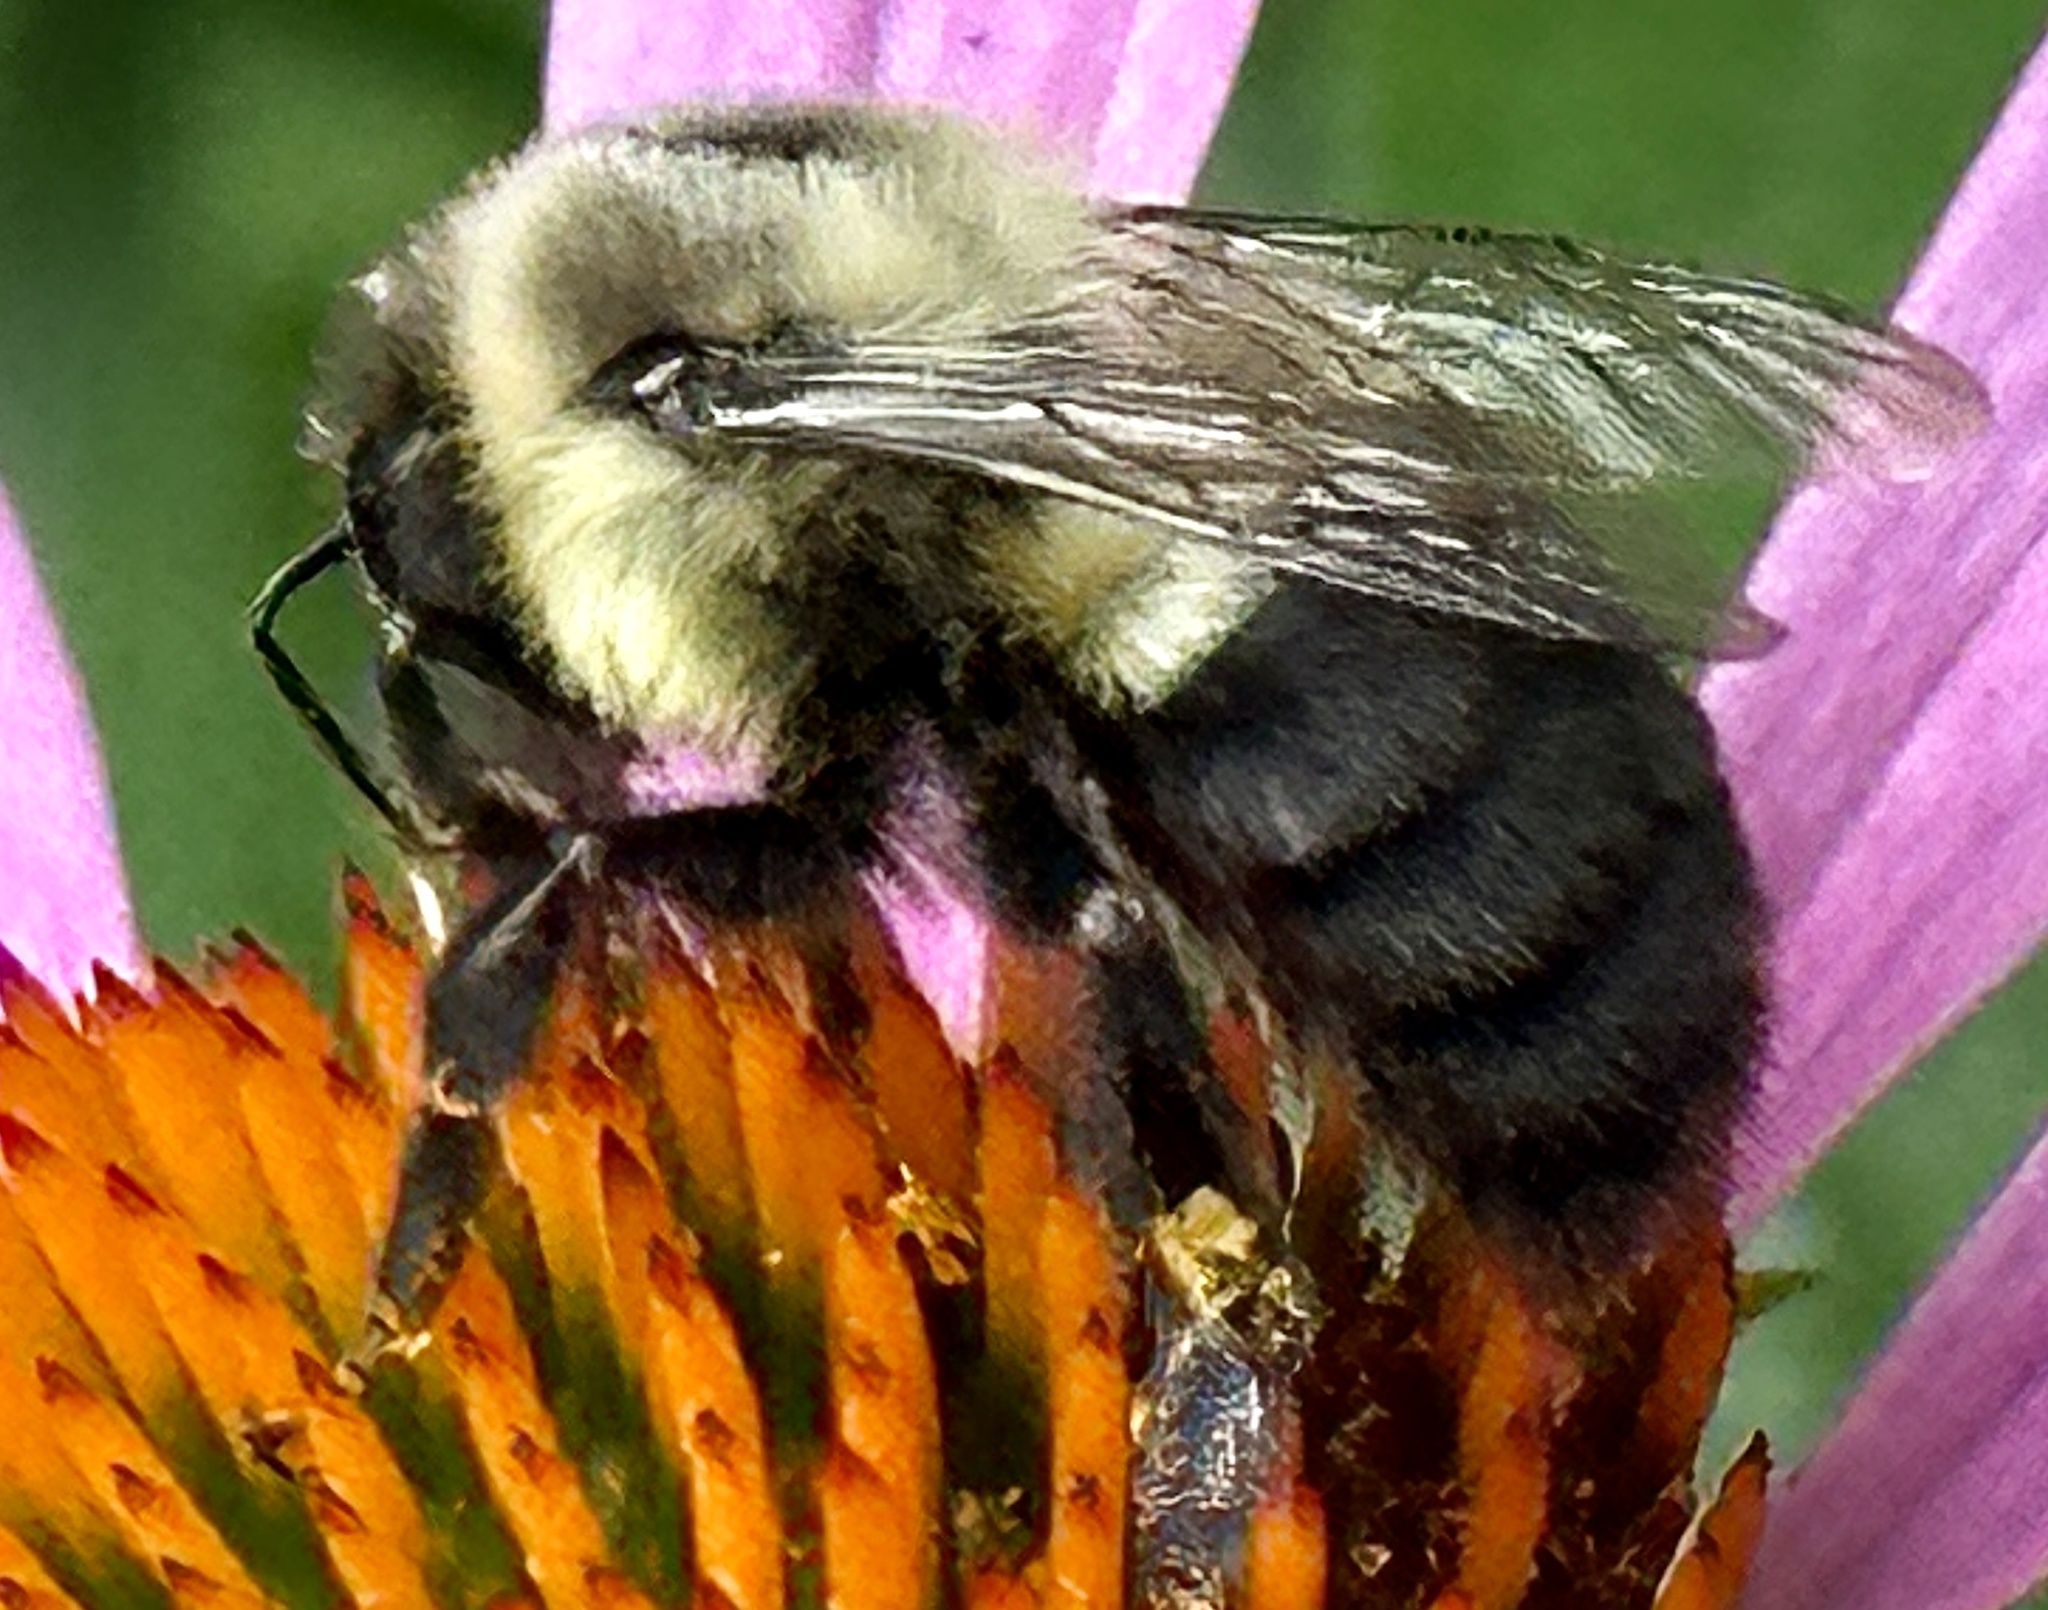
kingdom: Animalia
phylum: Arthropoda
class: Insecta
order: Hymenoptera
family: Apidae
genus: Bombus
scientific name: Bombus impatiens
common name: Common eastern bumble bee
